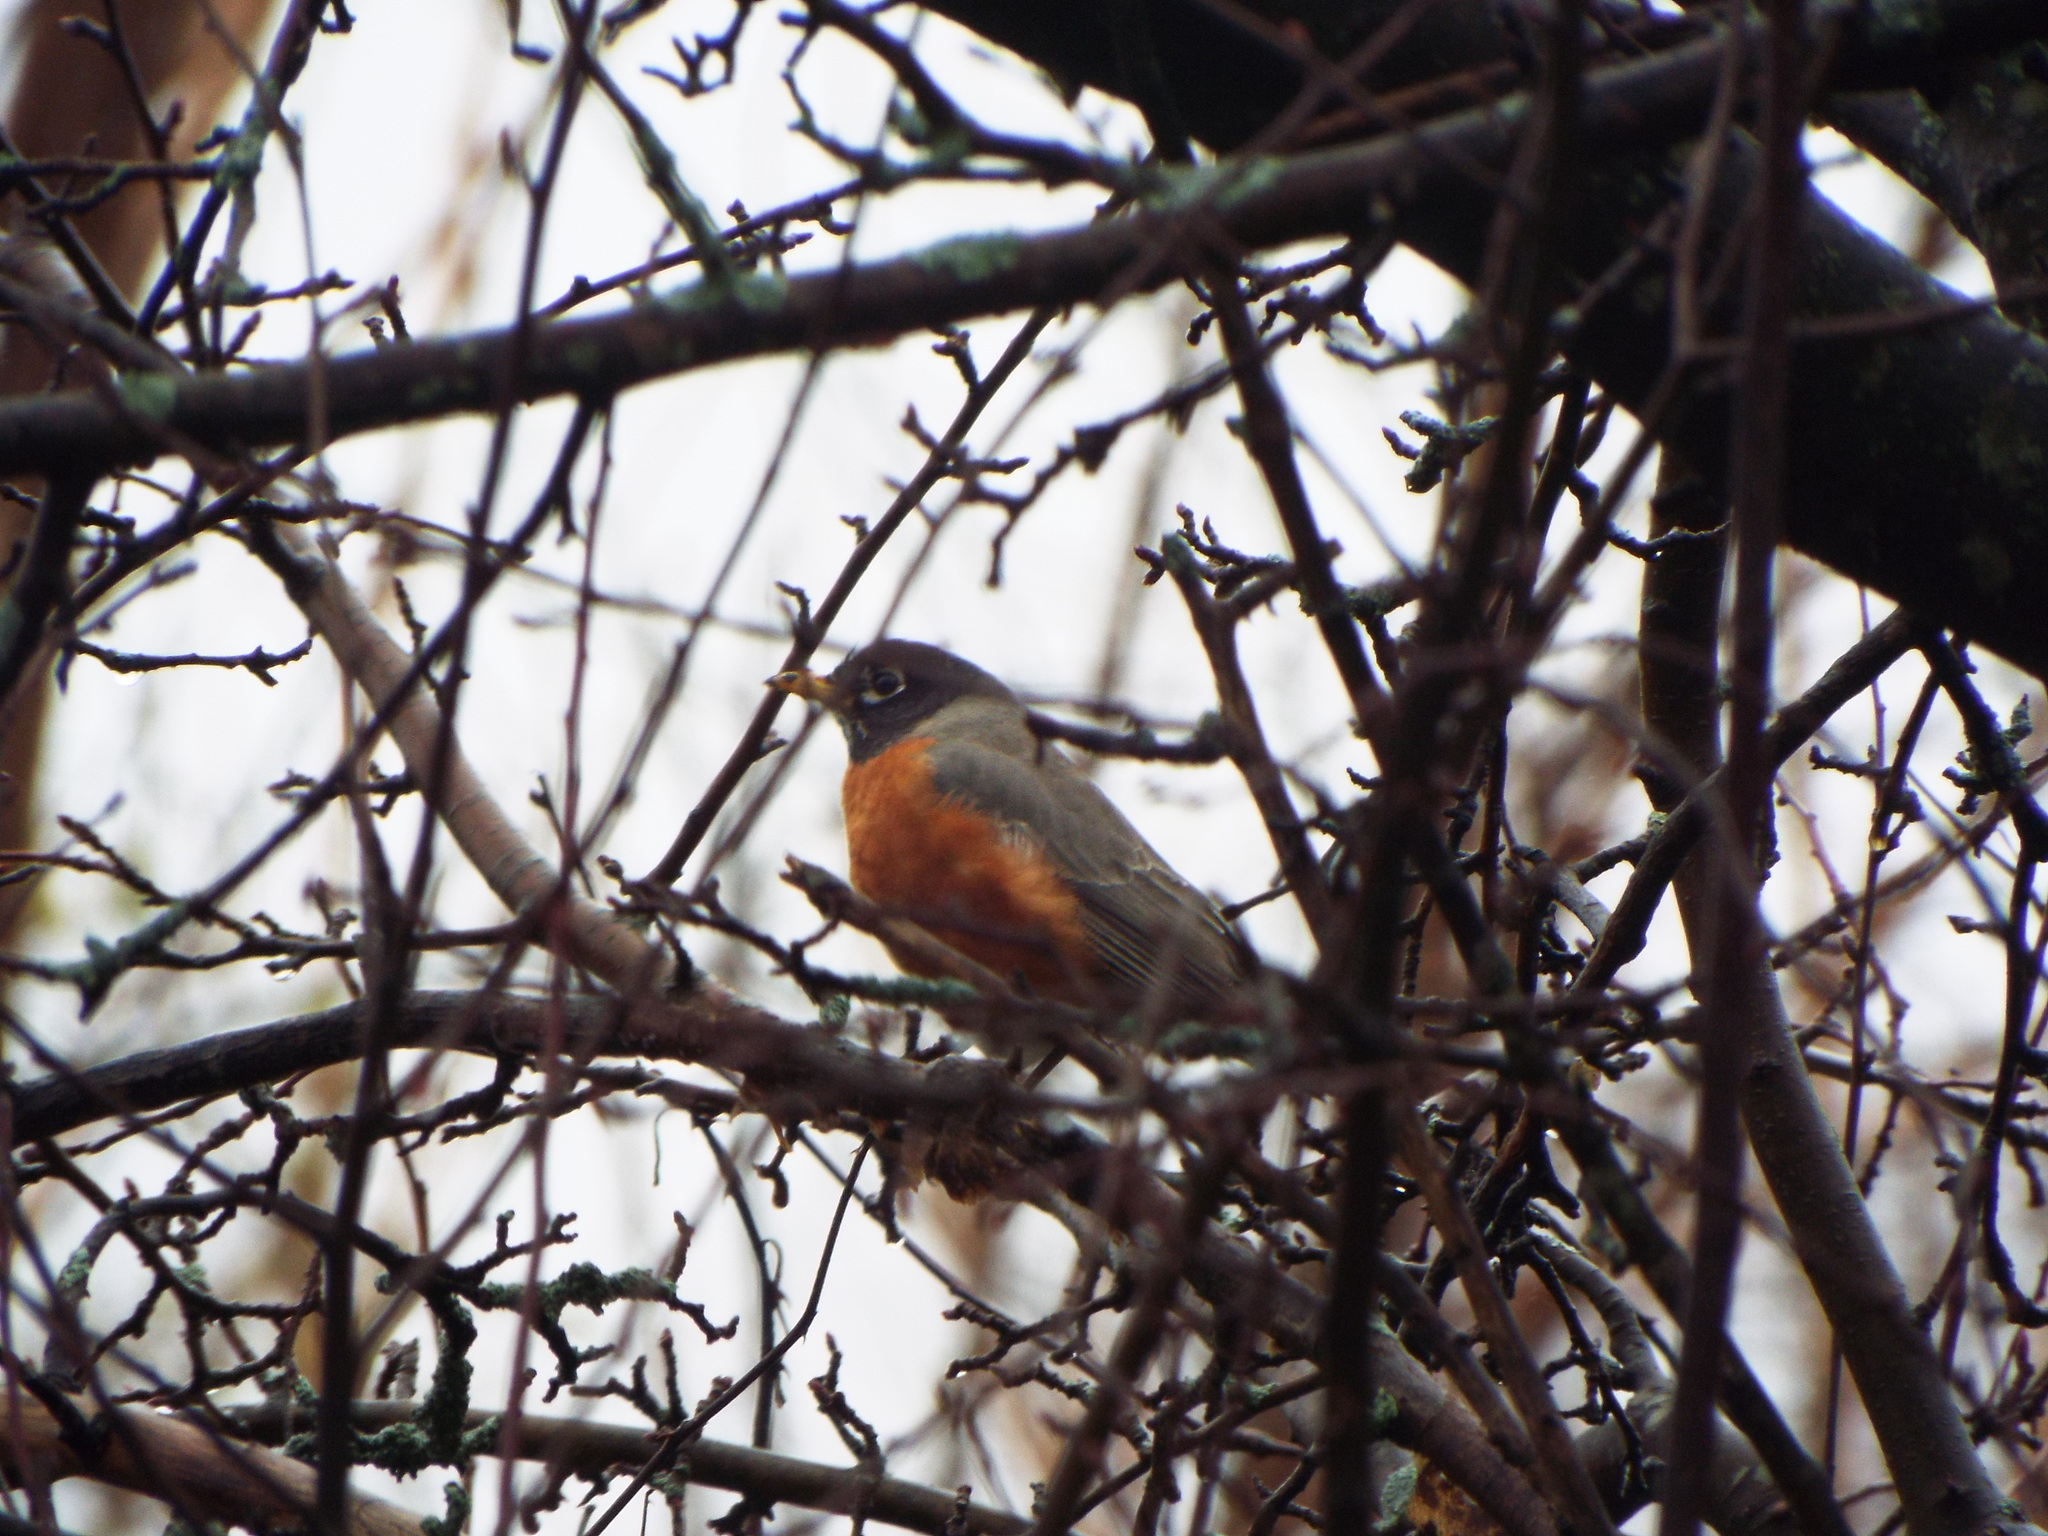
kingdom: Animalia
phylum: Chordata
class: Aves
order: Passeriformes
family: Turdidae
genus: Turdus
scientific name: Turdus migratorius
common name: American robin
